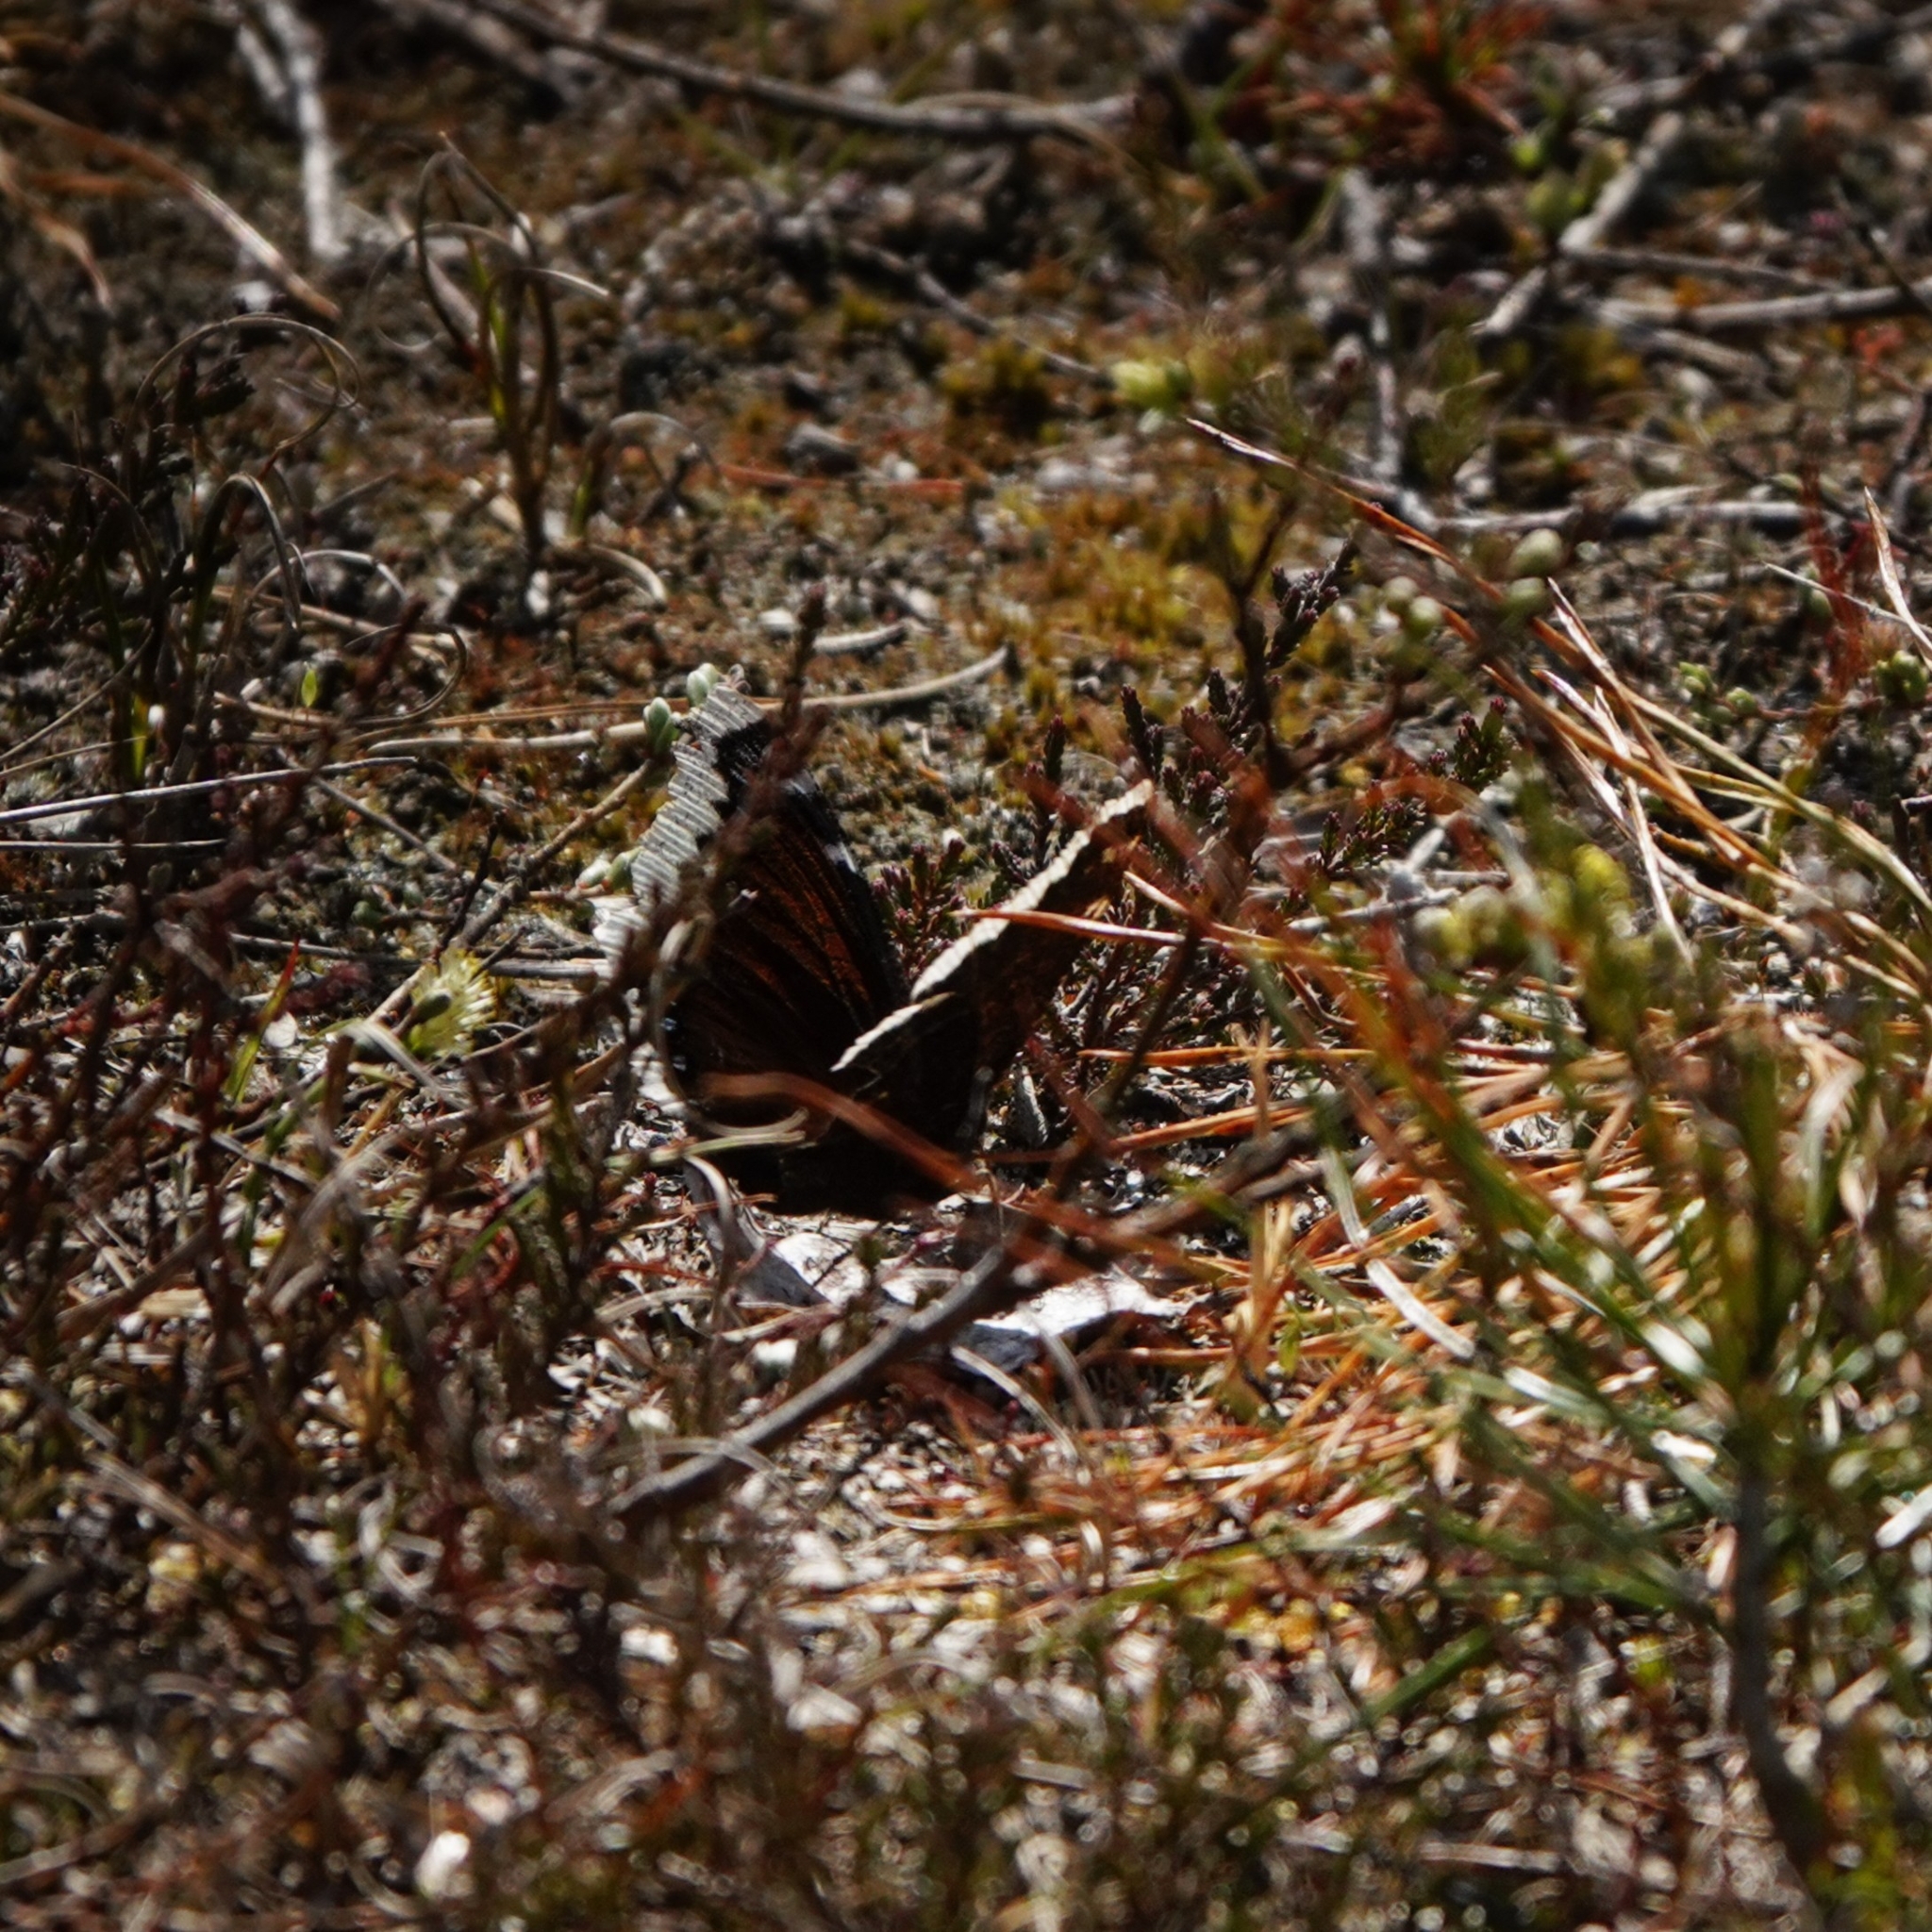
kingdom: Animalia
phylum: Arthropoda
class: Insecta
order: Lepidoptera
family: Nymphalidae
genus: Nymphalis
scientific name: Nymphalis antiopa
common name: Camberwell beauty
